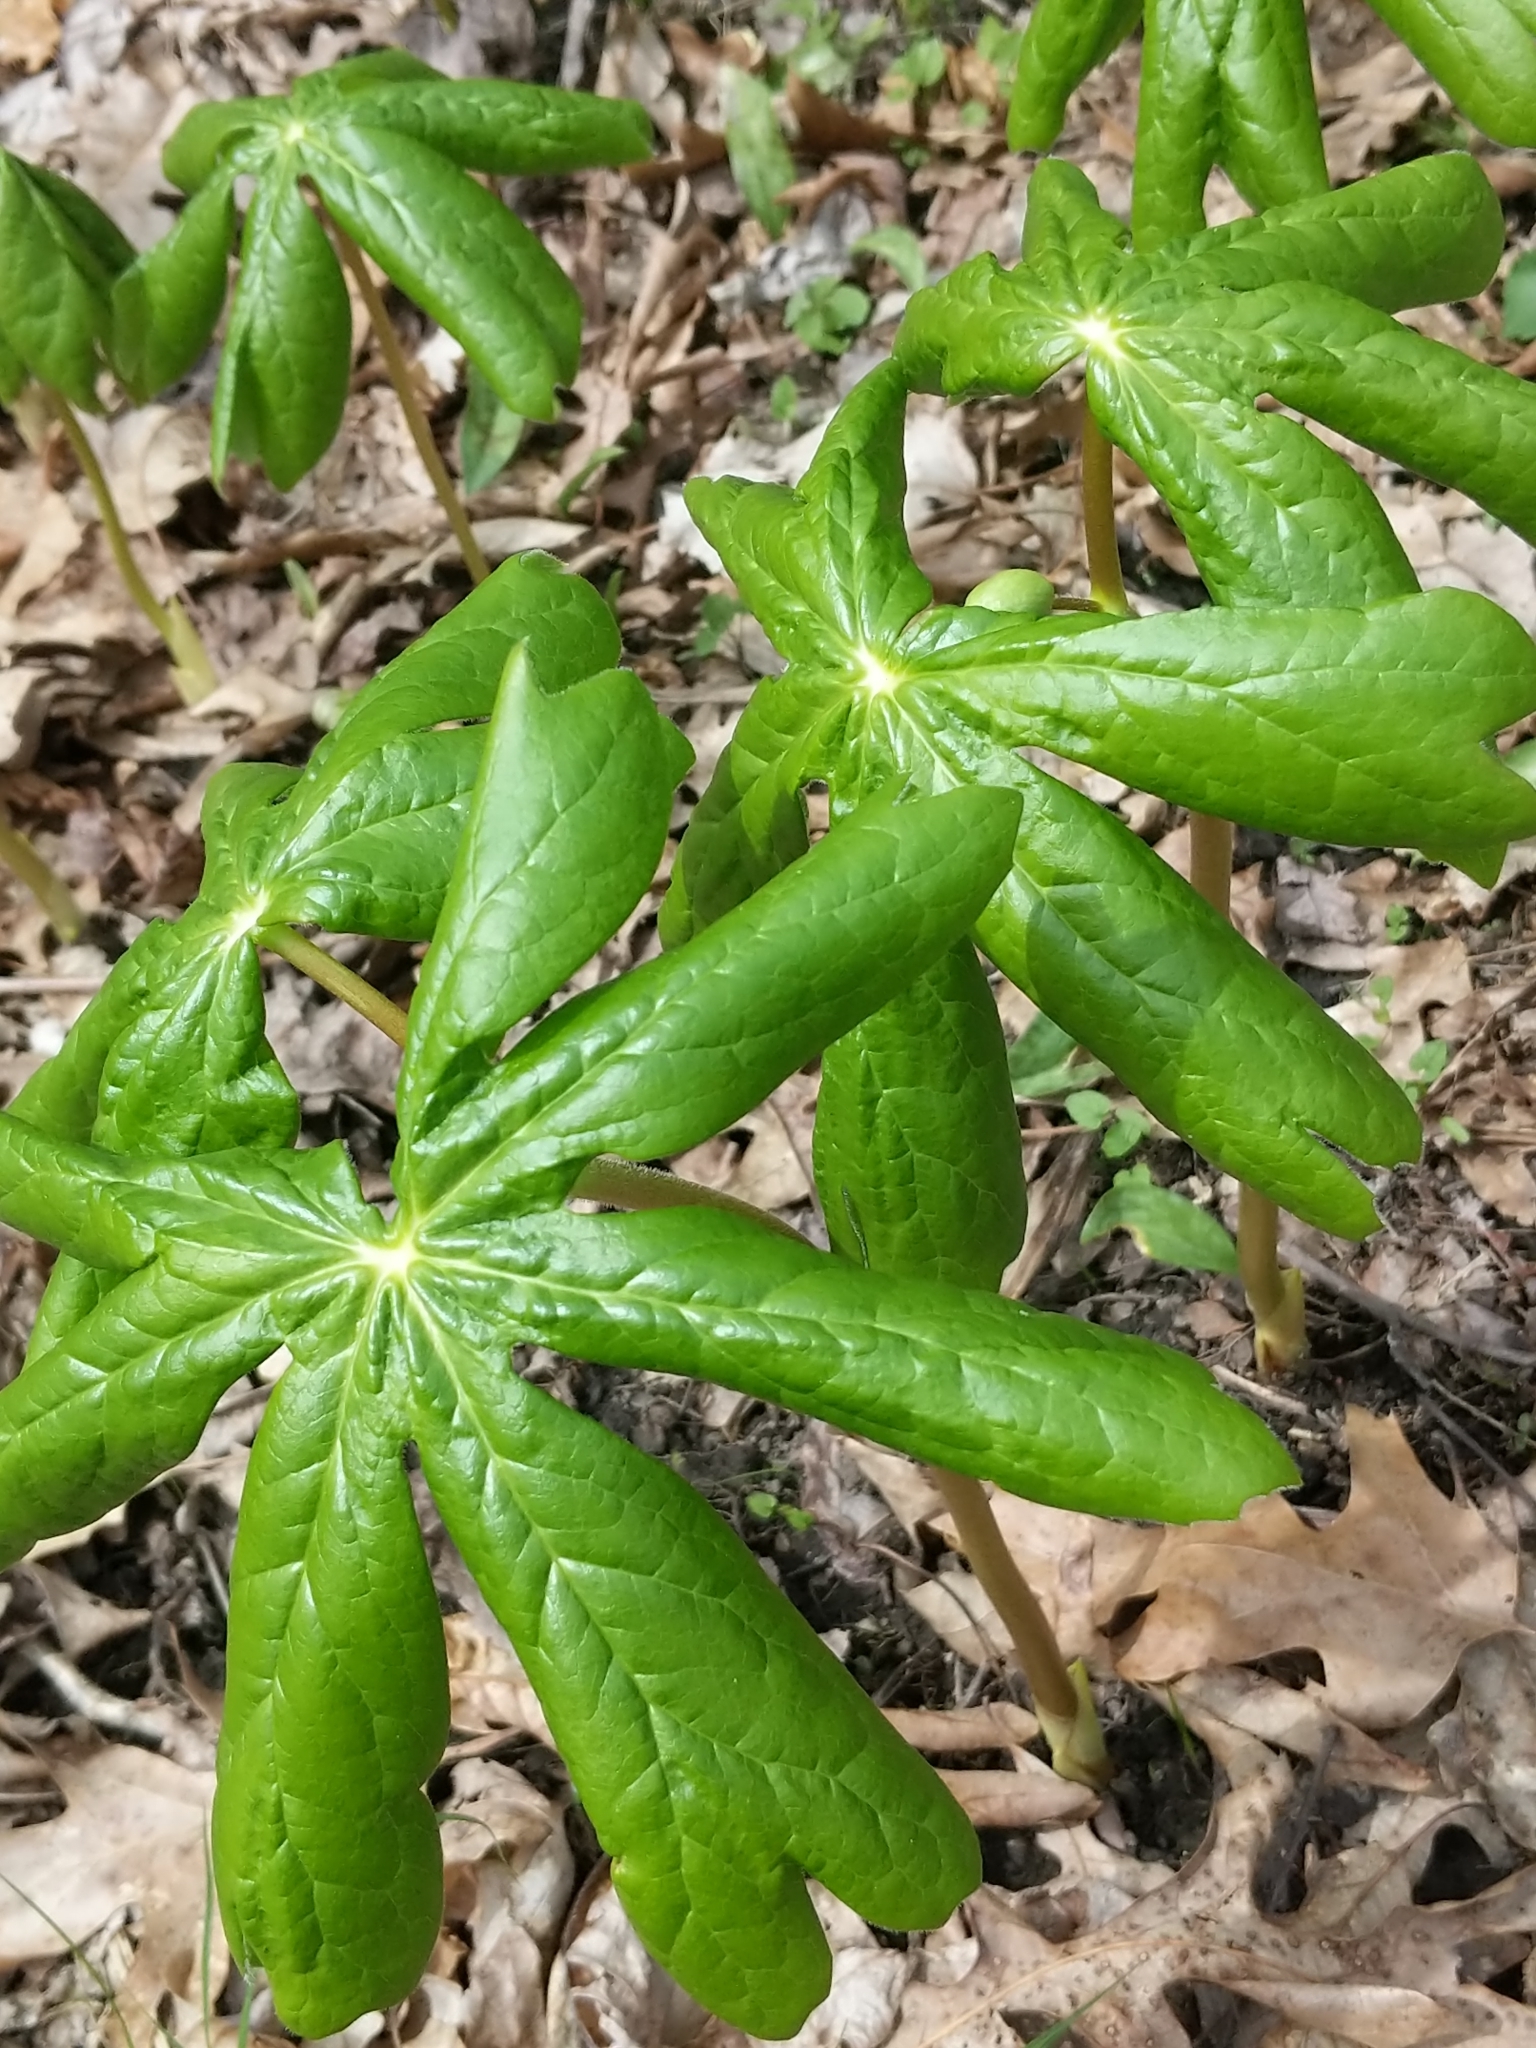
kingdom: Plantae
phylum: Tracheophyta
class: Magnoliopsida
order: Ranunculales
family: Berberidaceae
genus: Podophyllum
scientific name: Podophyllum peltatum
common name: Wild mandrake
